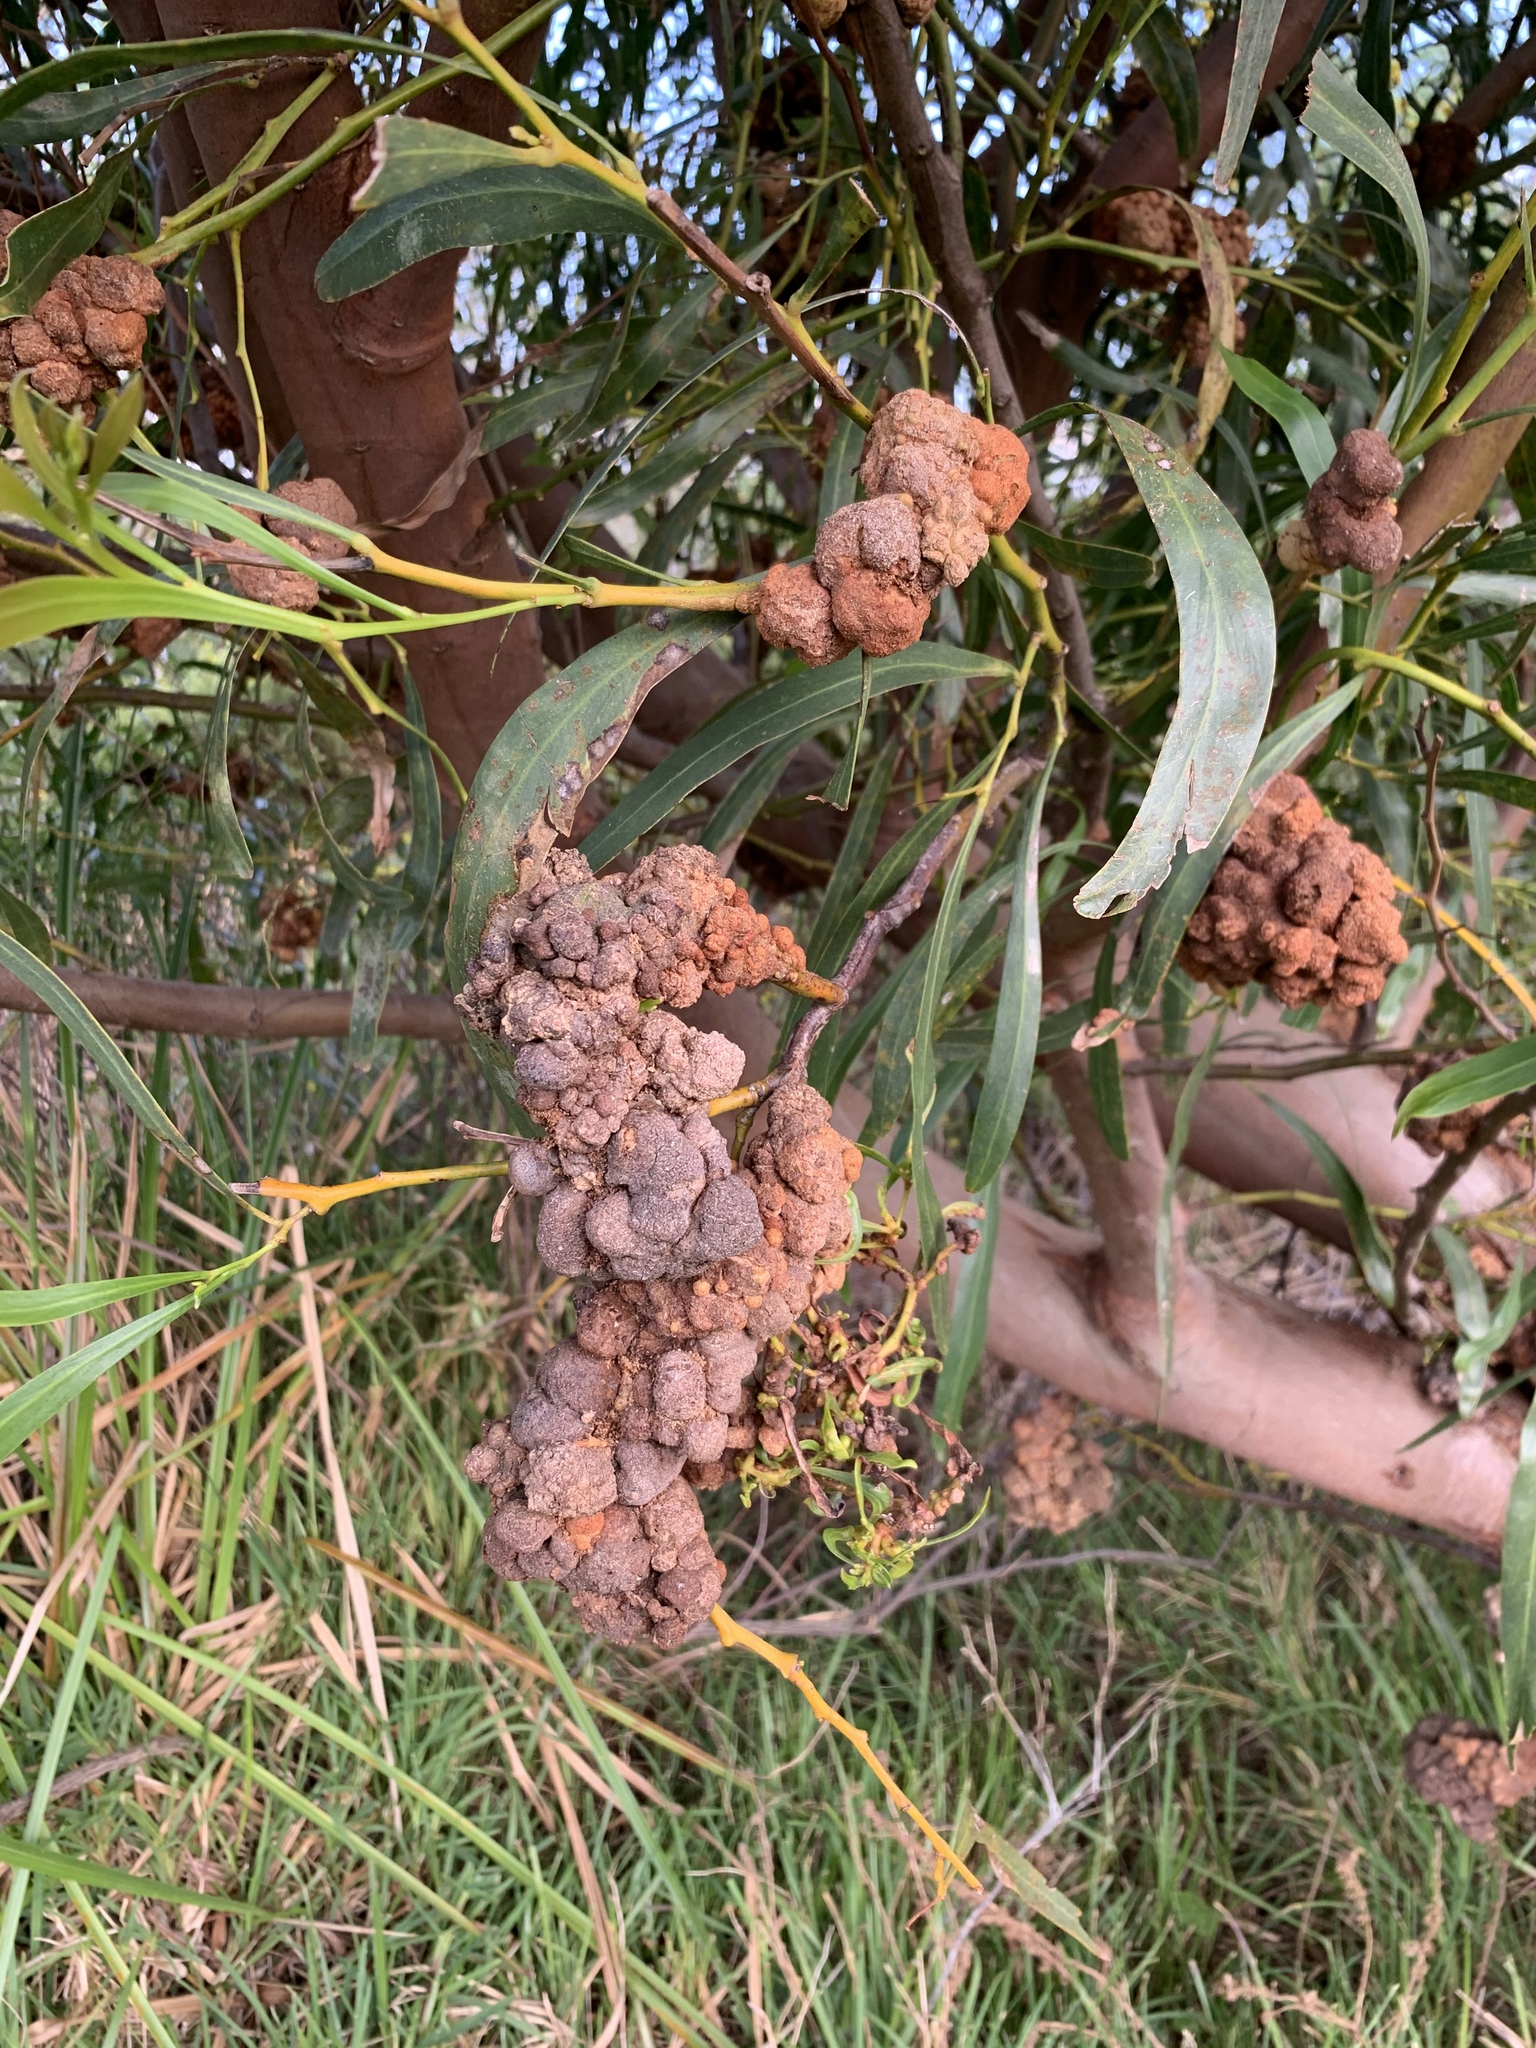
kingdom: Fungi
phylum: Basidiomycota
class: Pucciniomycetes
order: Pucciniales
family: Uromycladiaceae
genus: Uromycladium
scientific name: Uromycladium morrisii
